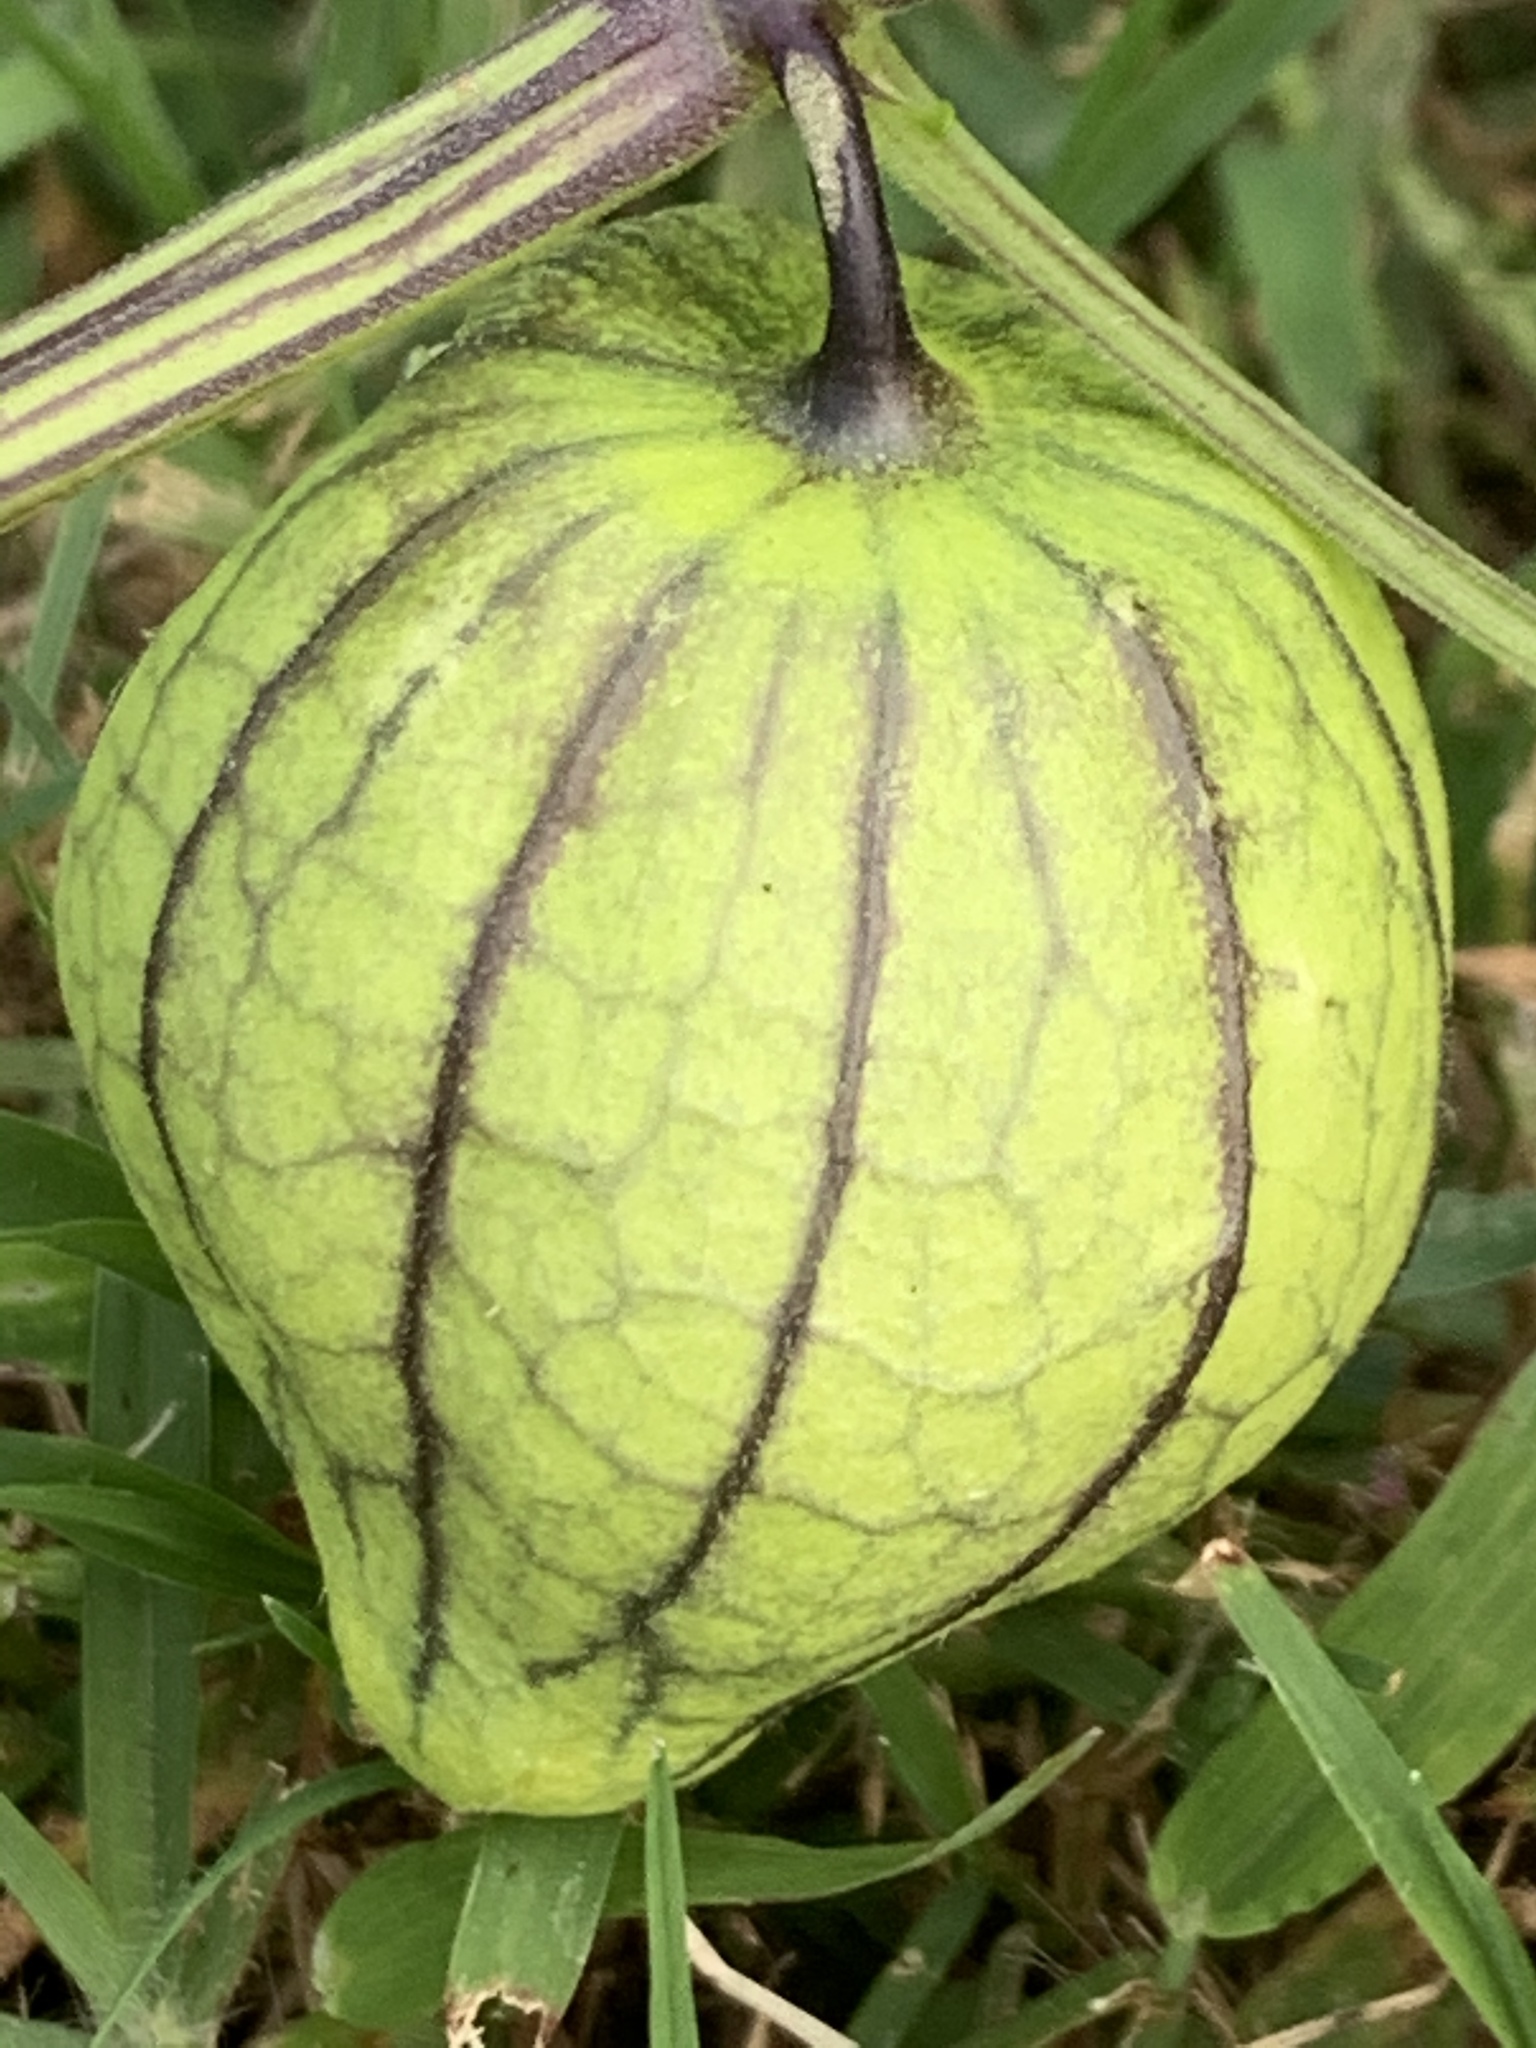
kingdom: Plantae
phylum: Tracheophyta
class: Magnoliopsida
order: Solanales
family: Solanaceae
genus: Physalis
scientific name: Physalis philadelphica
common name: Husk-tomato
